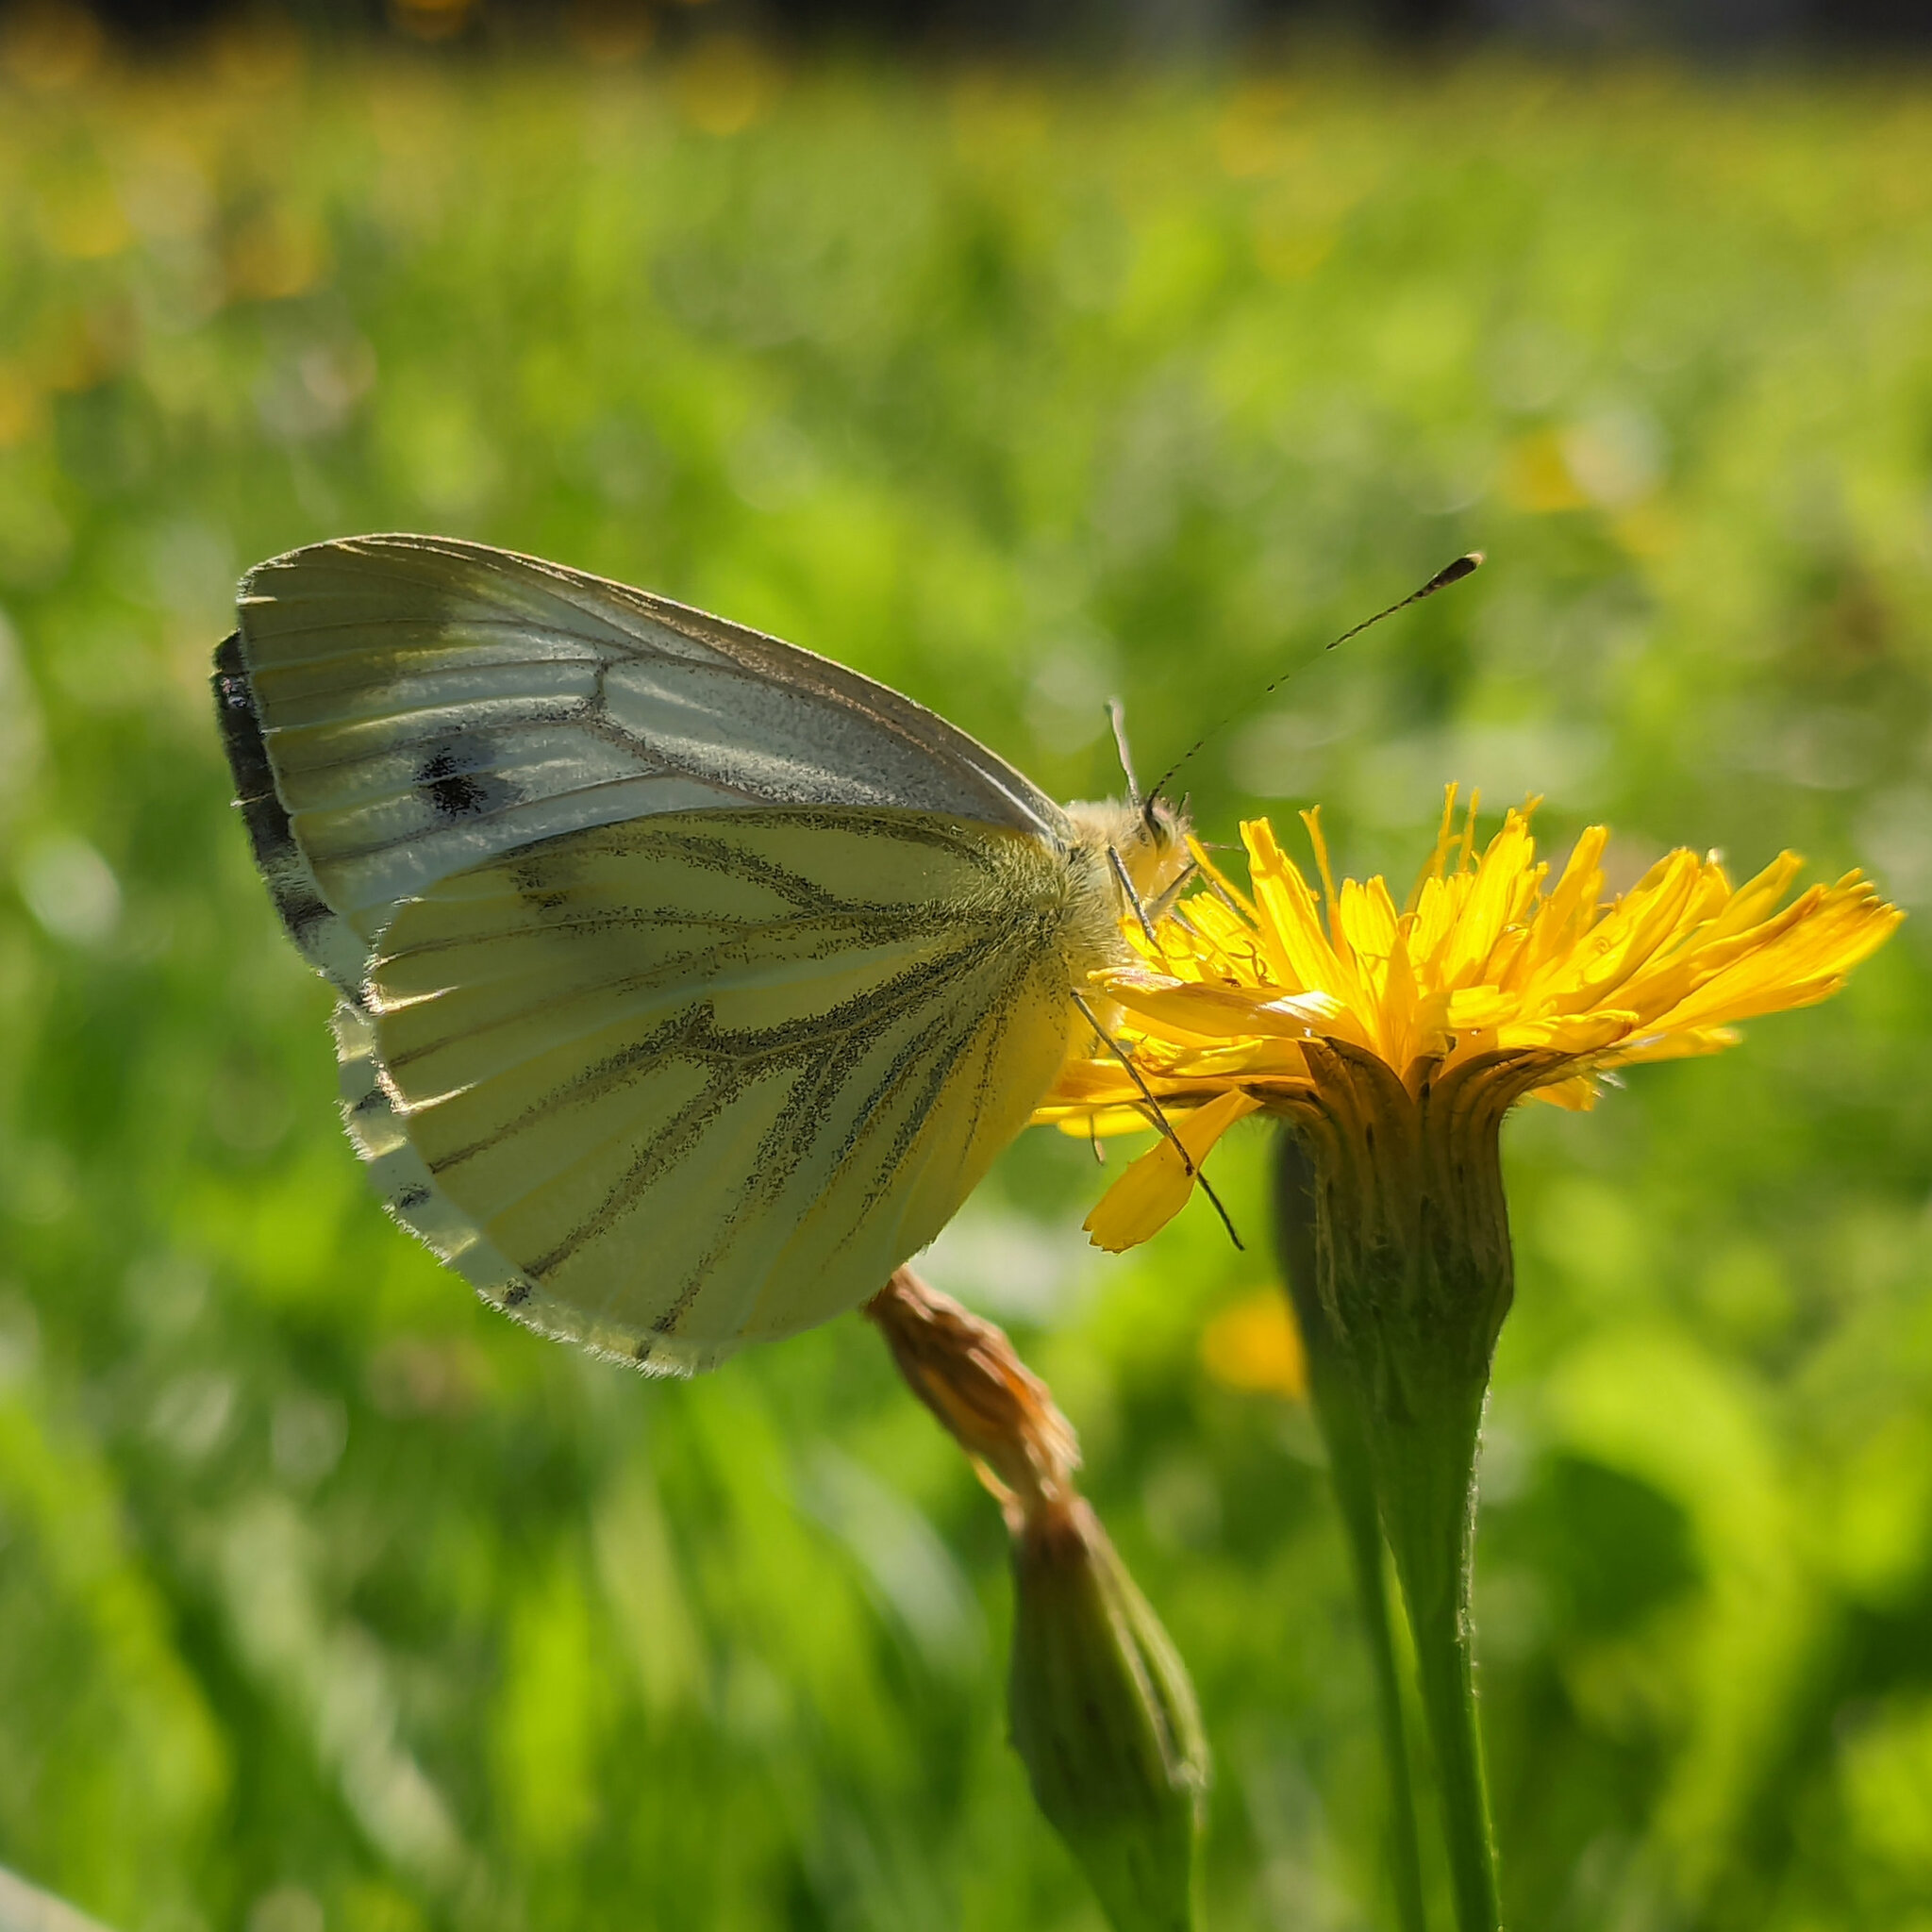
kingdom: Animalia
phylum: Arthropoda
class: Insecta
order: Lepidoptera
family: Pieridae
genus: Pieris
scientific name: Pieris napi
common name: Green-veined white
